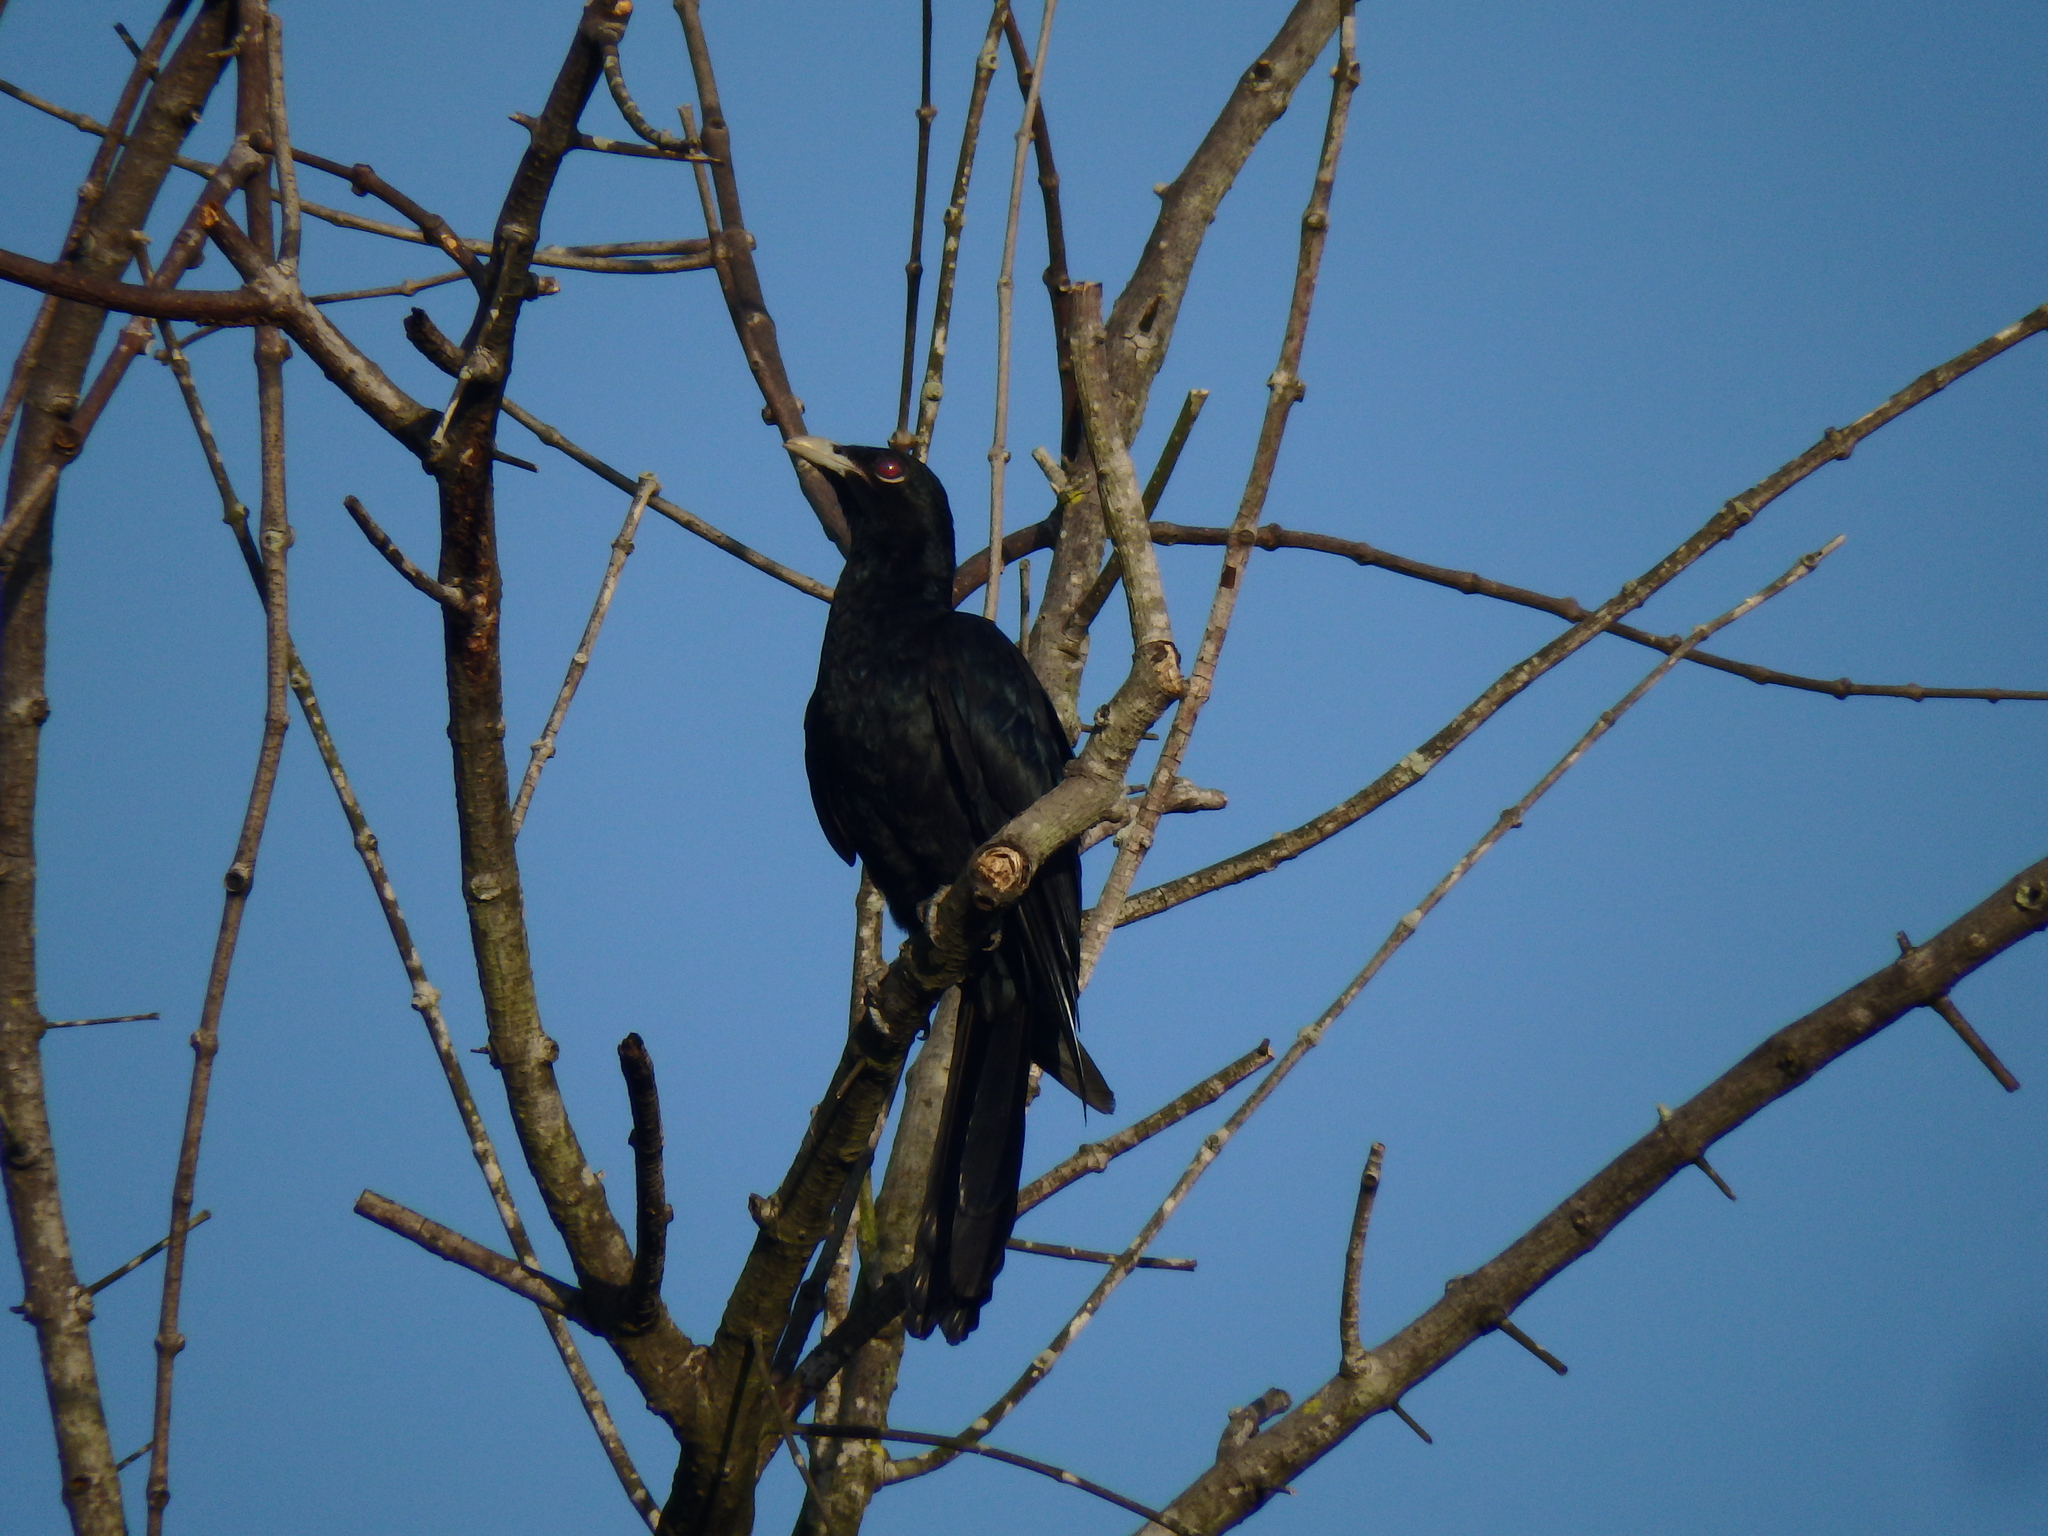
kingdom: Animalia
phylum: Chordata
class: Aves
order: Cuculiformes
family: Cuculidae
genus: Eudynamys
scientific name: Eudynamys scolopaceus
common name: Asian koel
